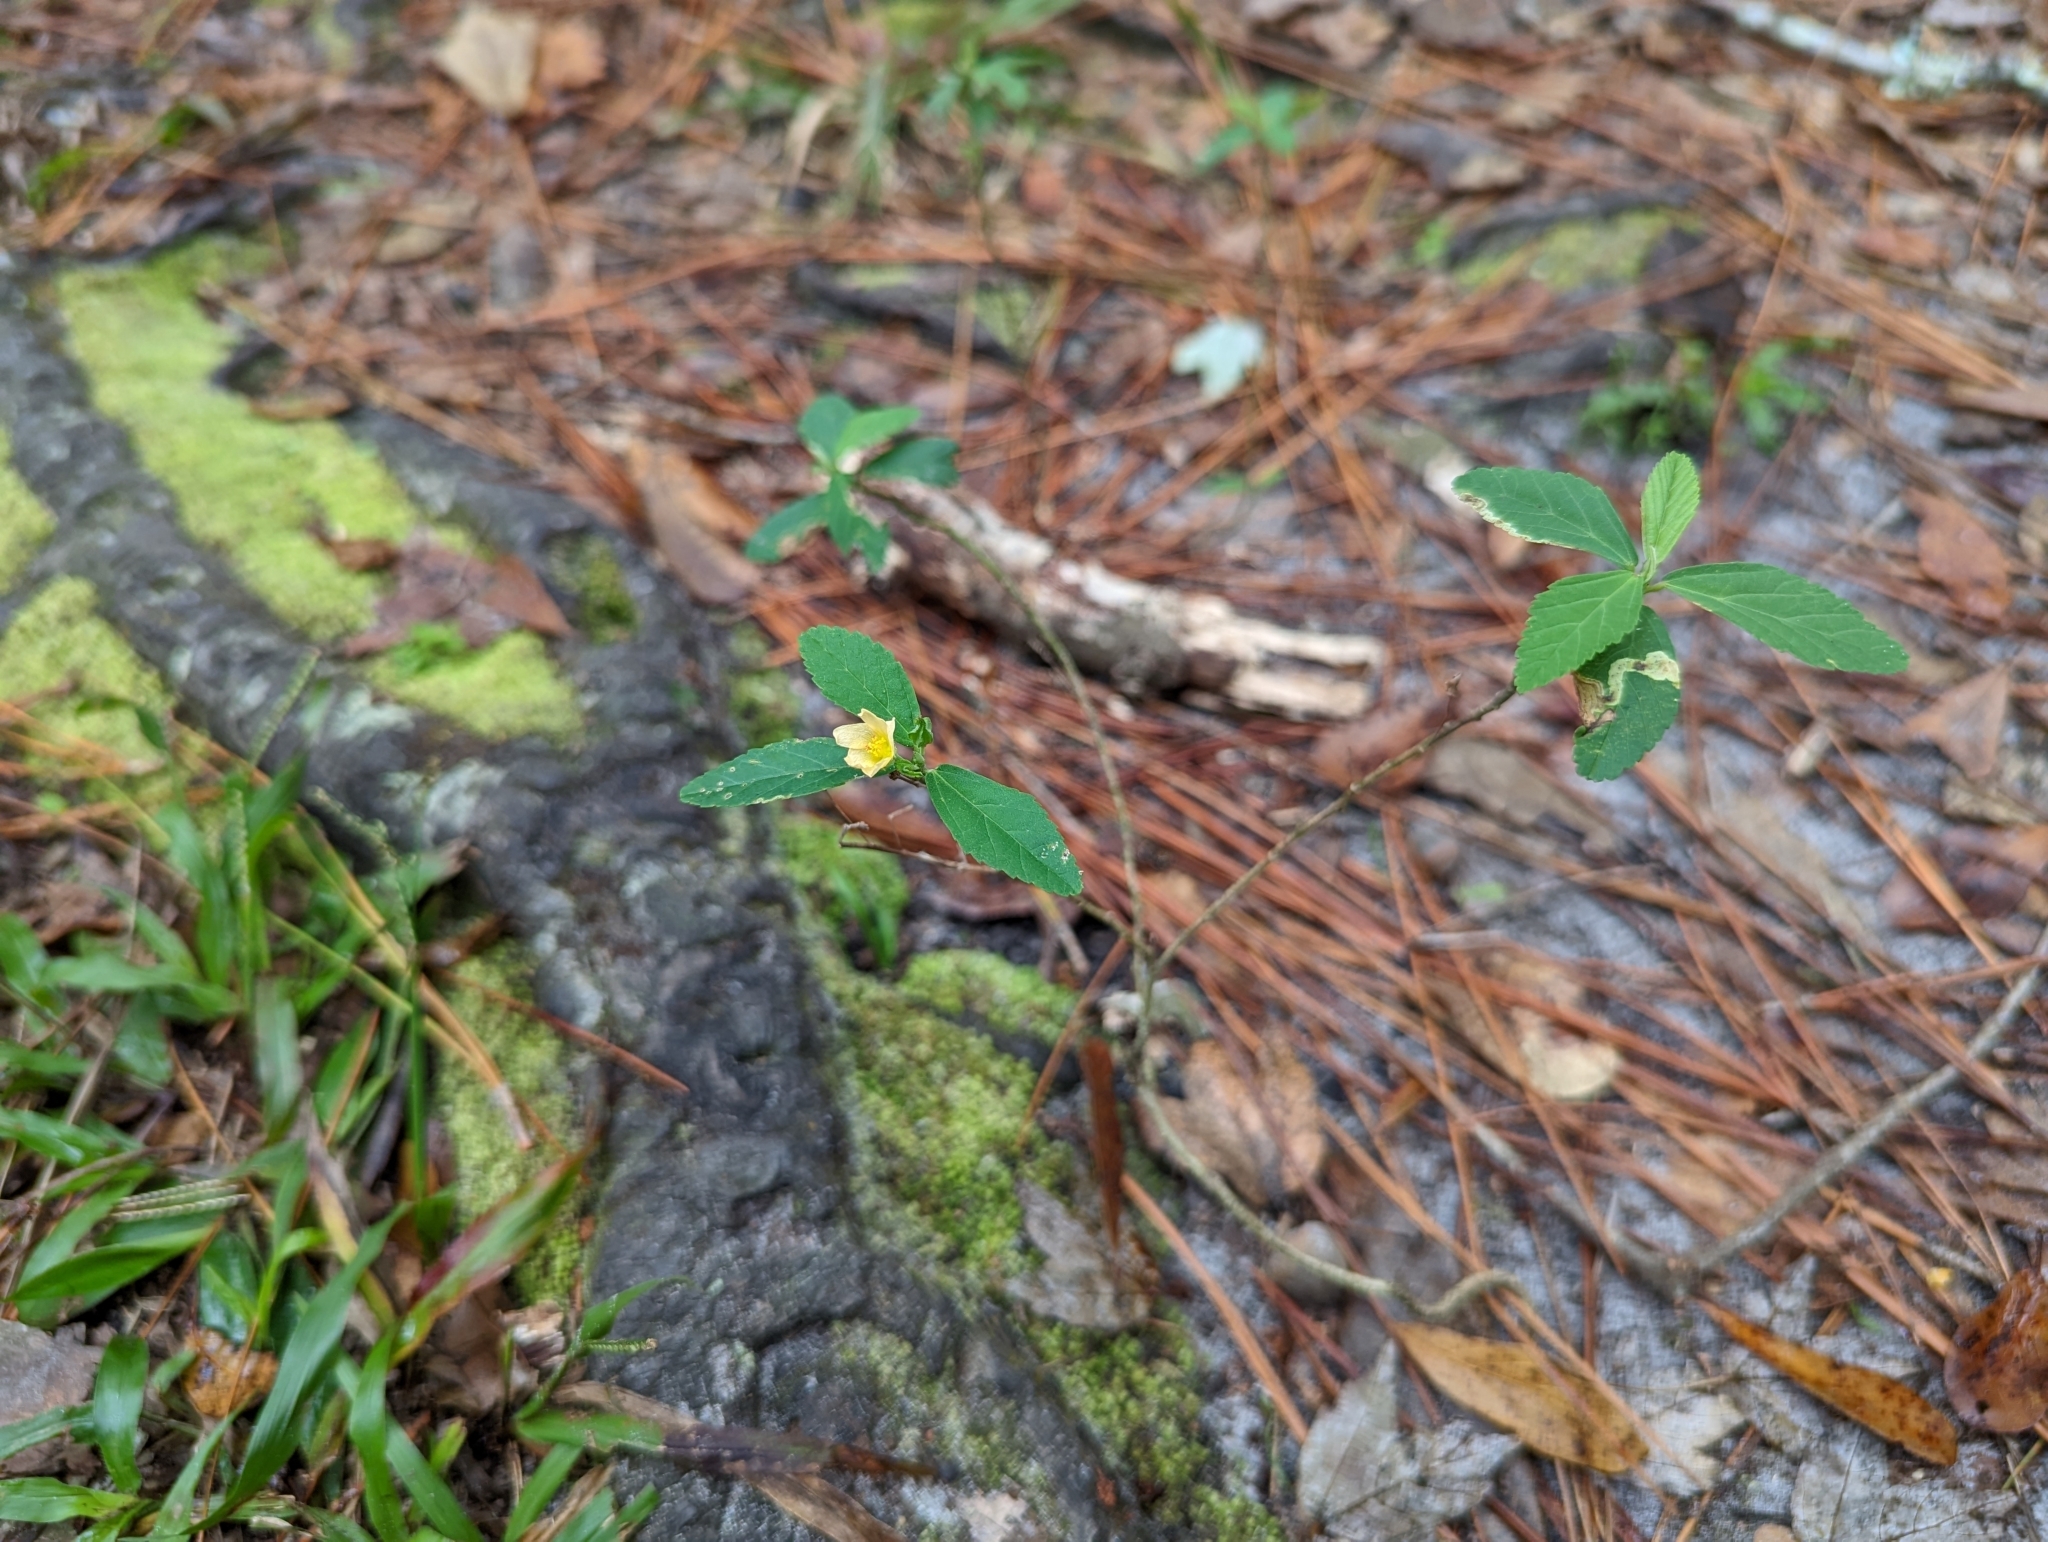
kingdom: Plantae
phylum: Tracheophyta
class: Magnoliopsida
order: Malvales
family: Malvaceae
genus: Sida
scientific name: Sida rhombifolia
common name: Queensland-hemp
